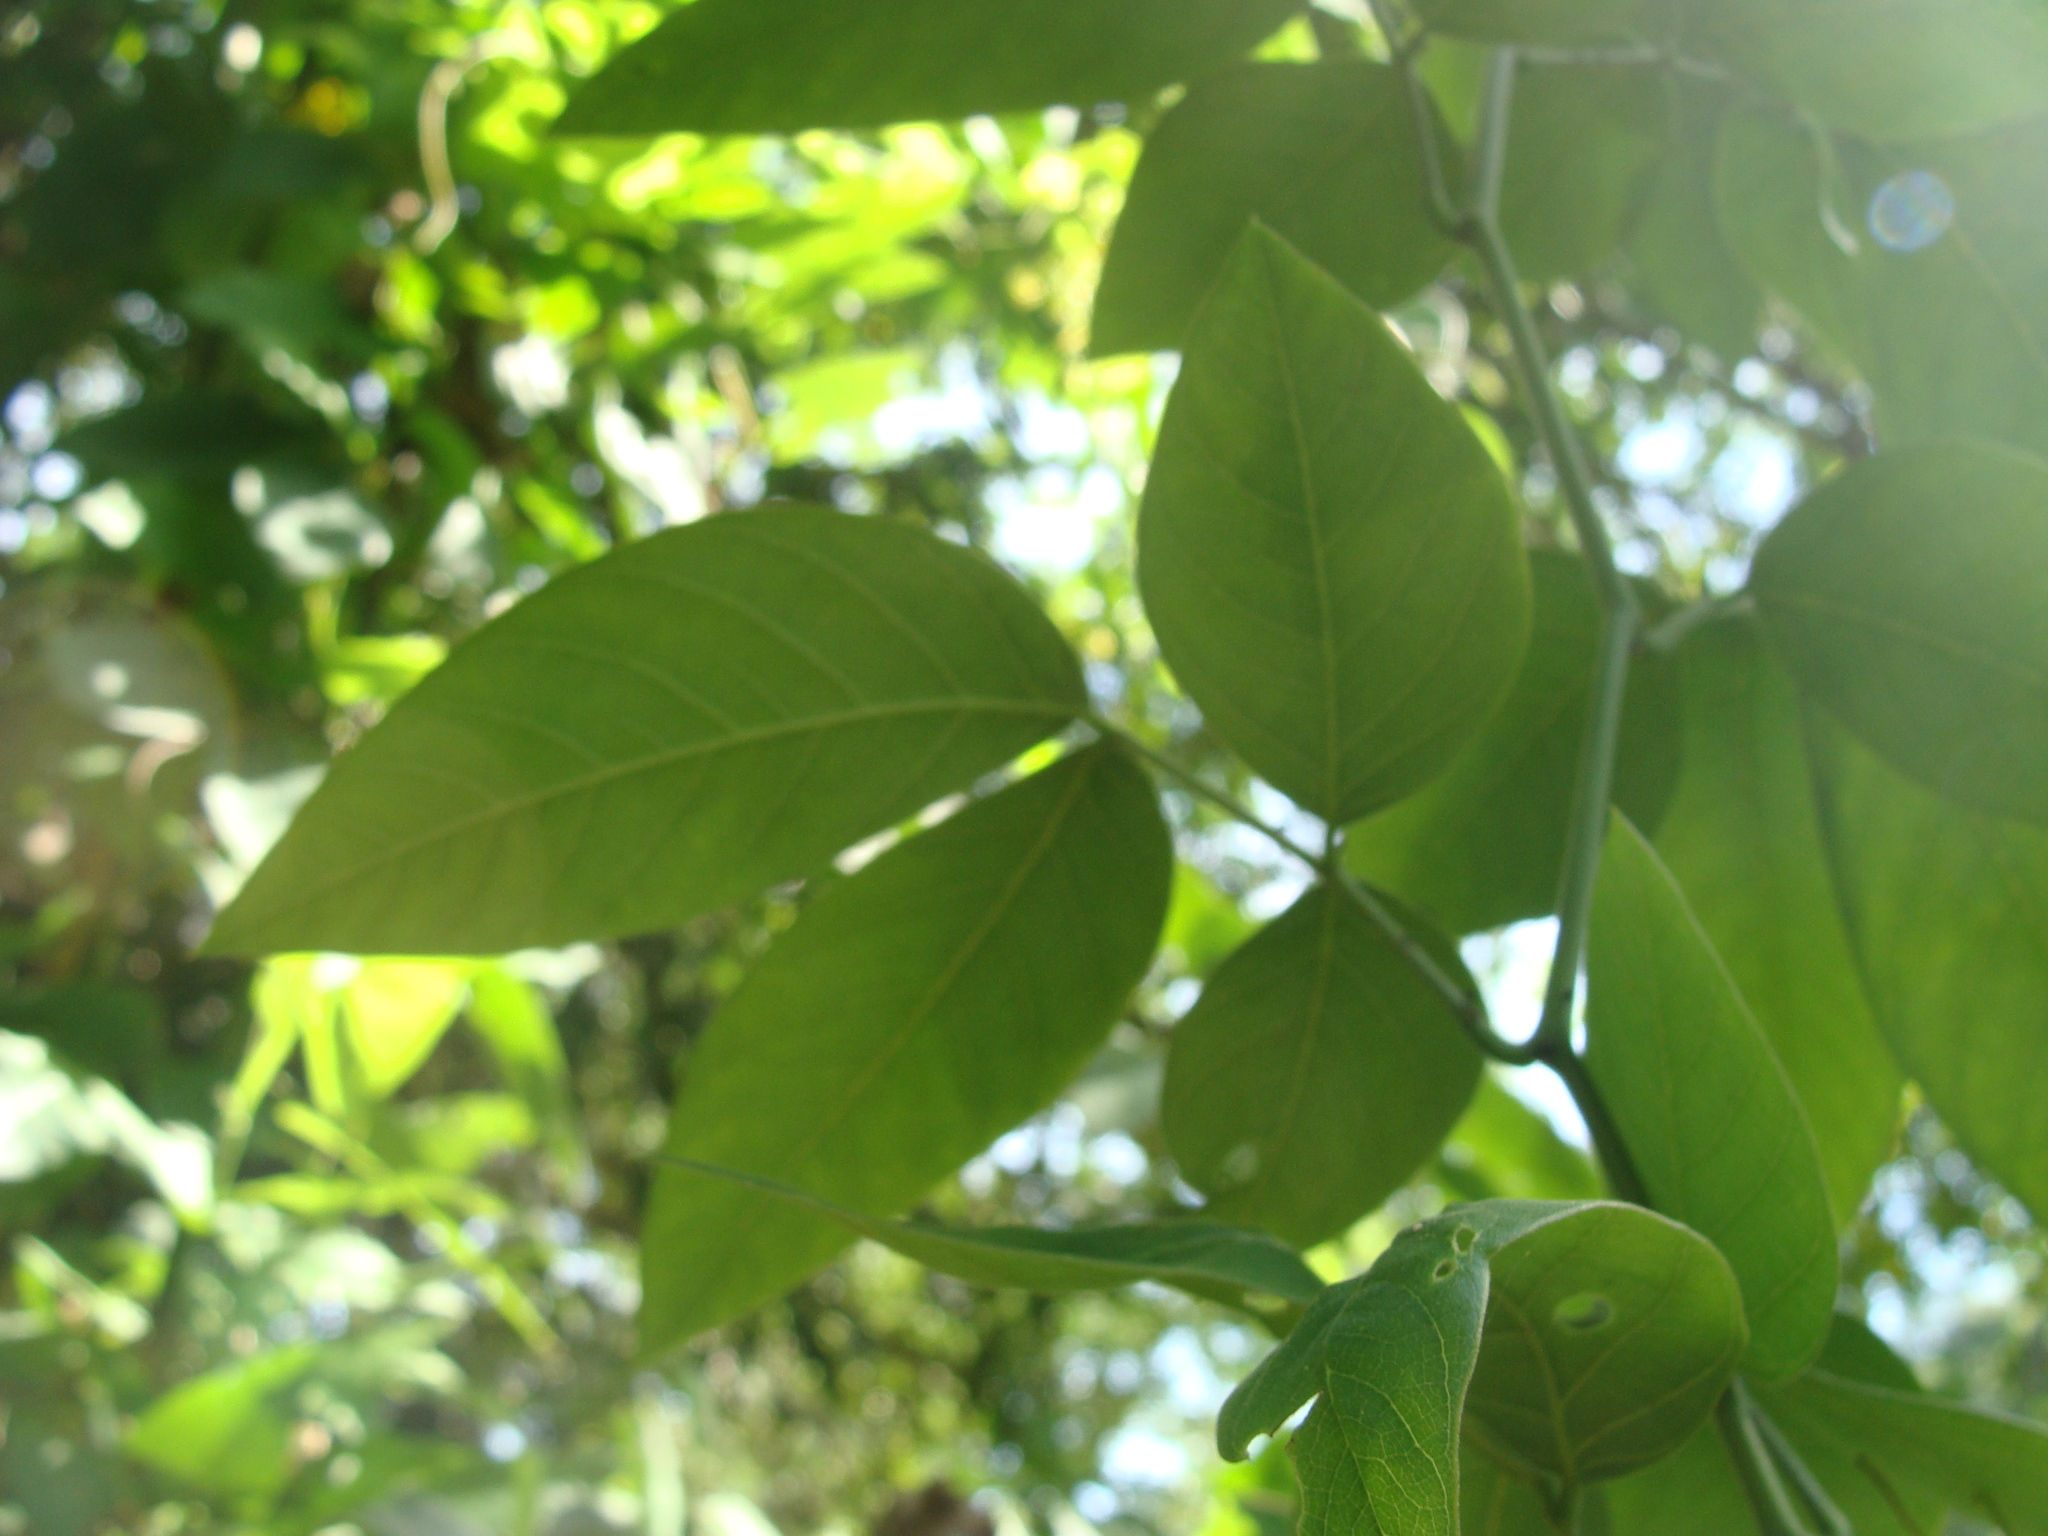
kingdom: Plantae
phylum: Tracheophyta
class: Magnoliopsida
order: Fabales
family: Fabaceae
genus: Senna
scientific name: Senna papillosa
